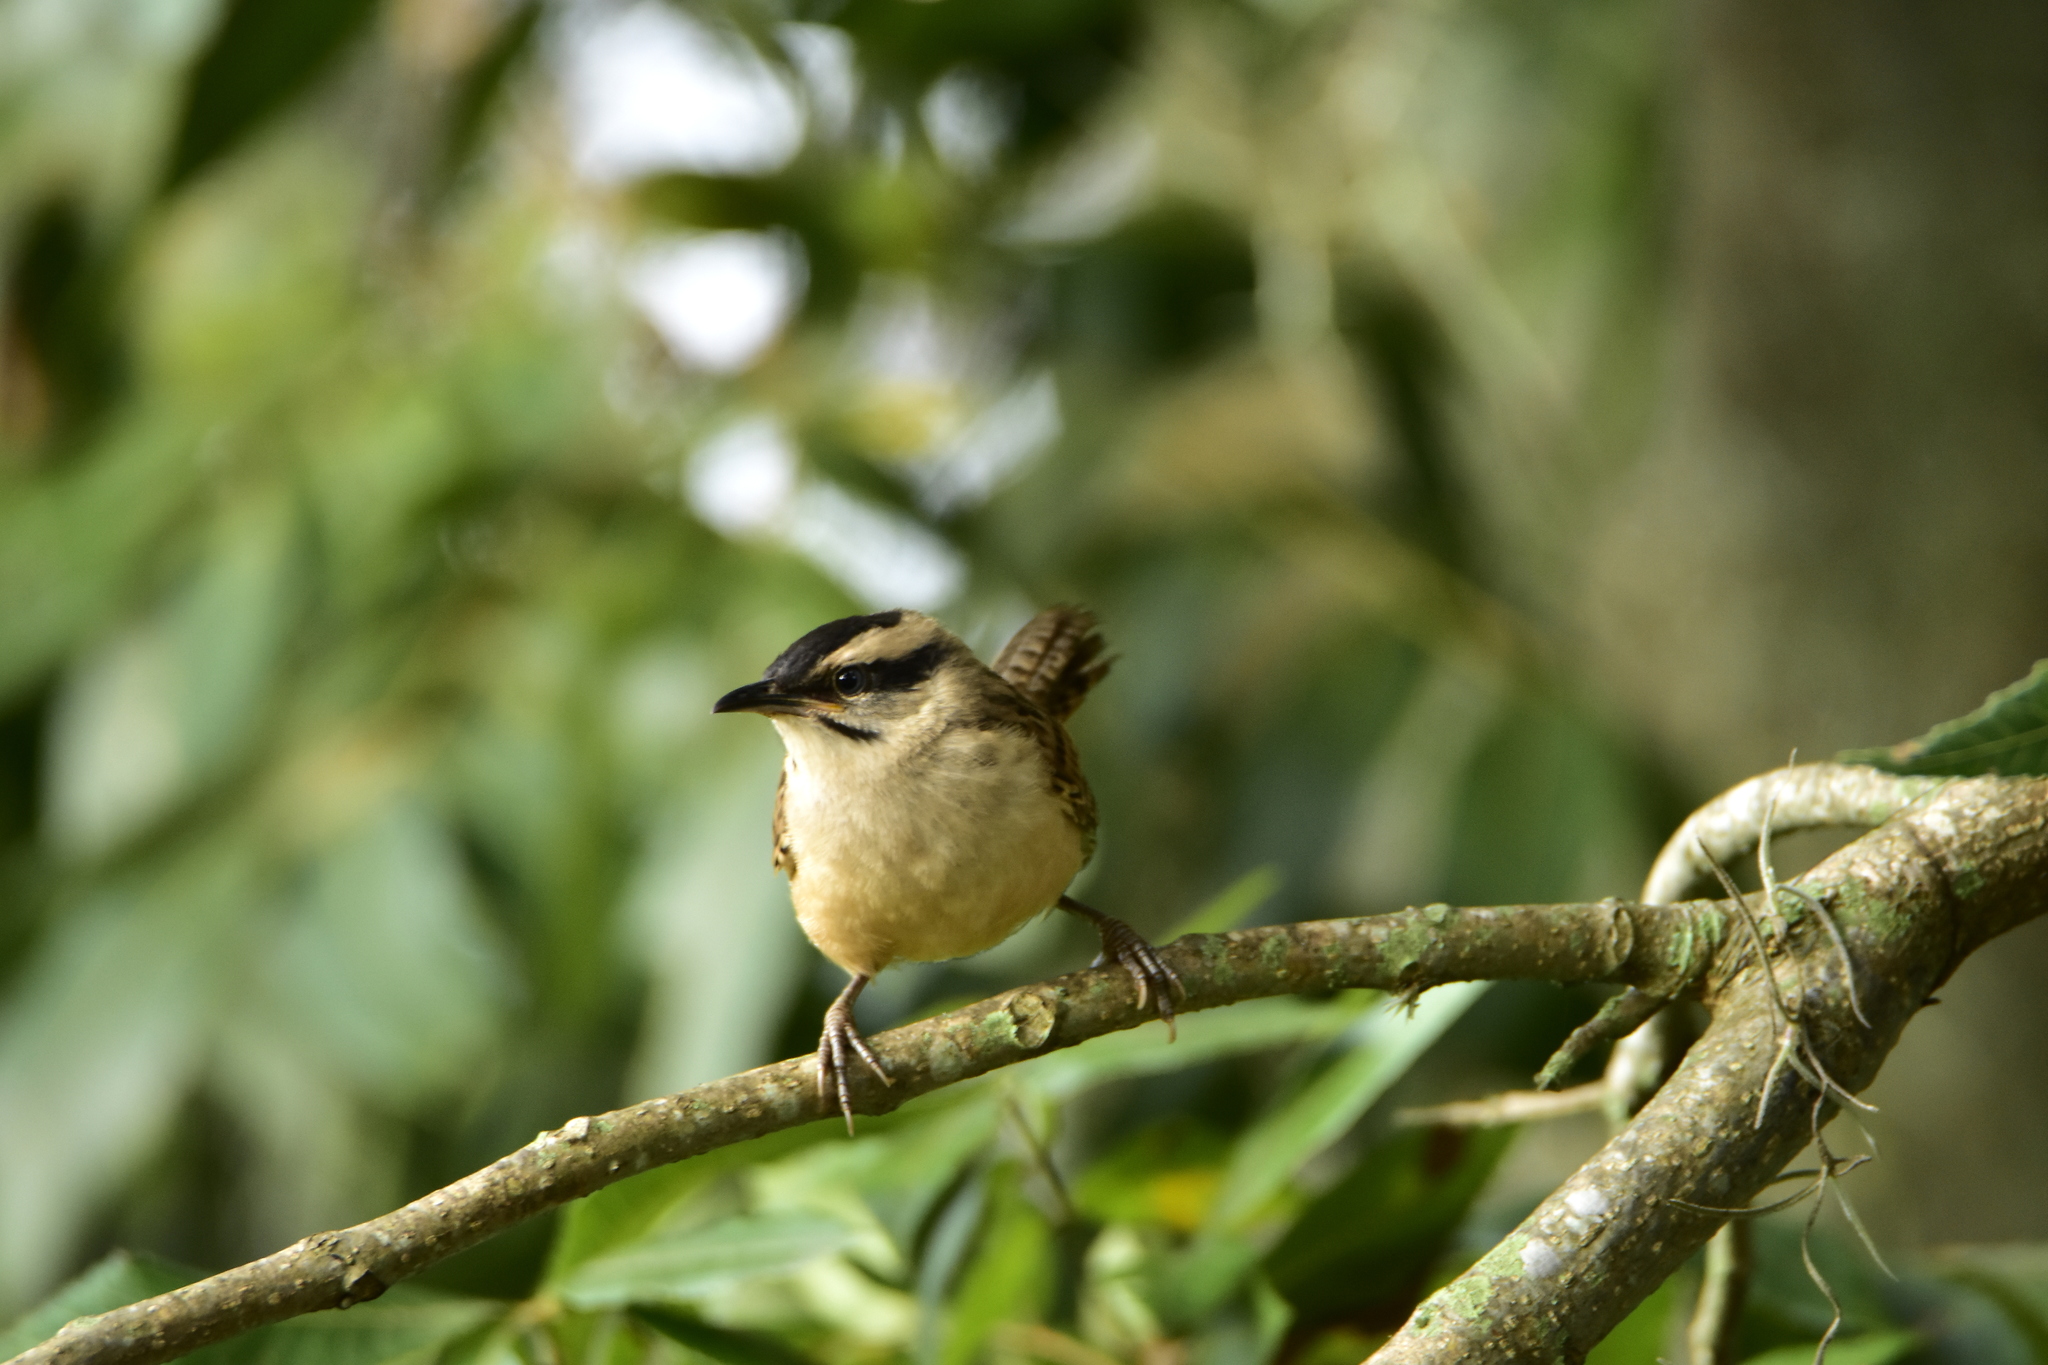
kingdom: Animalia
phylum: Chordata
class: Aves
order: Passeriformes
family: Troglodytidae
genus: Campylorhynchus
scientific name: Campylorhynchus gularis
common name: Spotted wren
